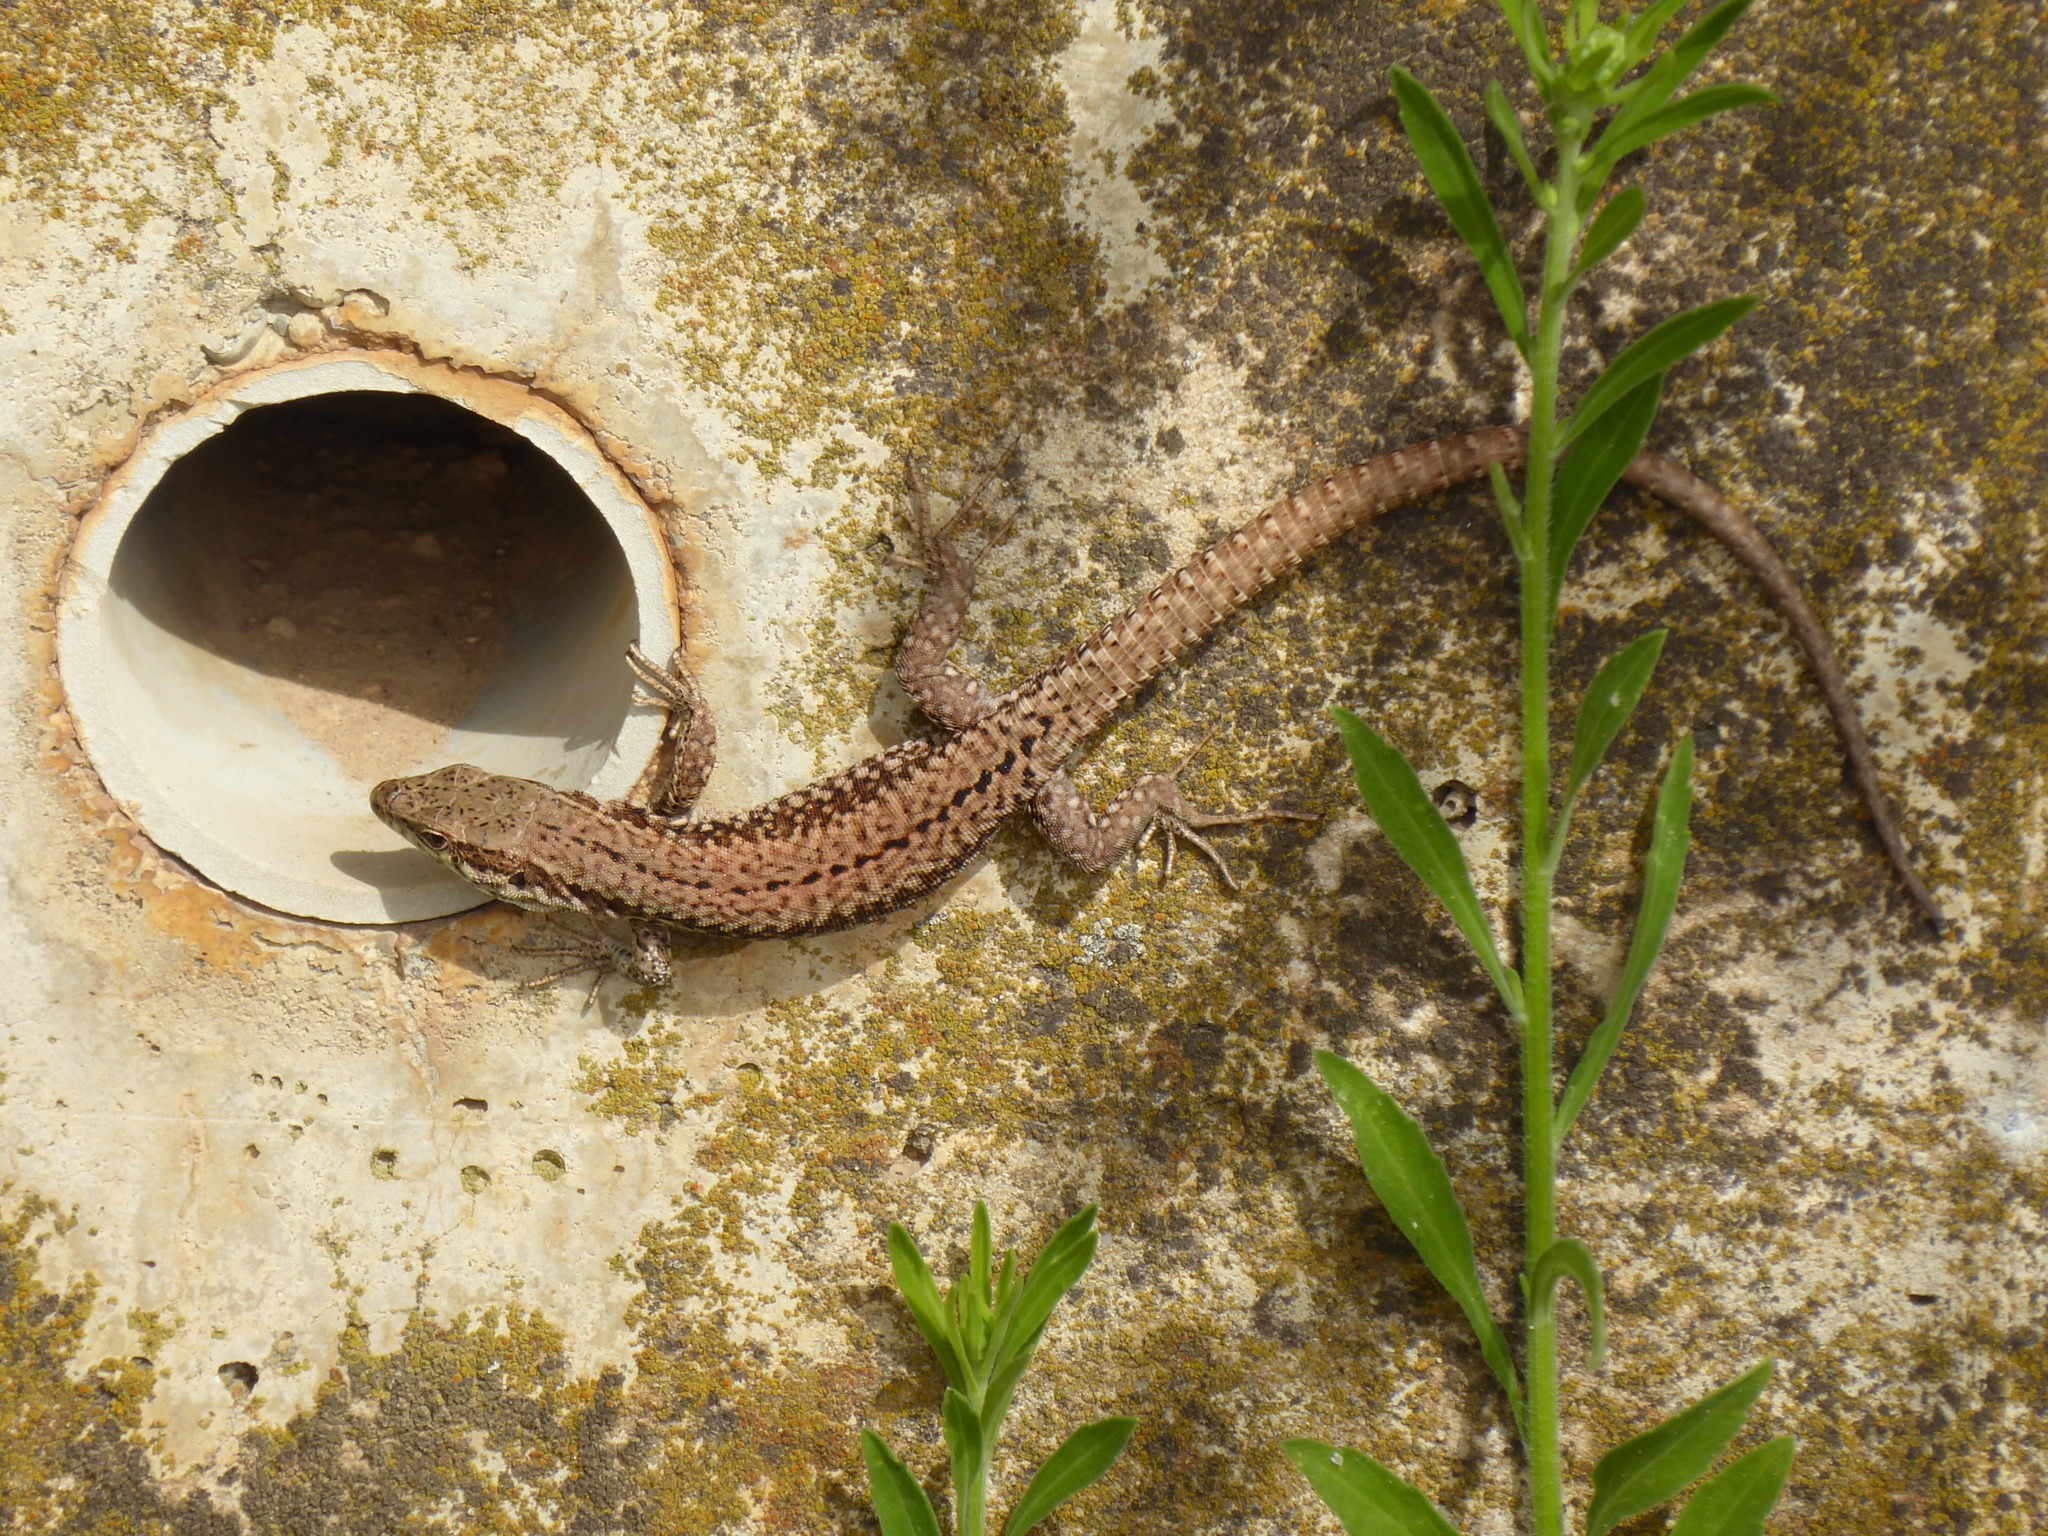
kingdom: Animalia
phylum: Chordata
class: Squamata
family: Lacertidae
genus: Podarcis
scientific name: Podarcis muralis
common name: Common wall lizard
